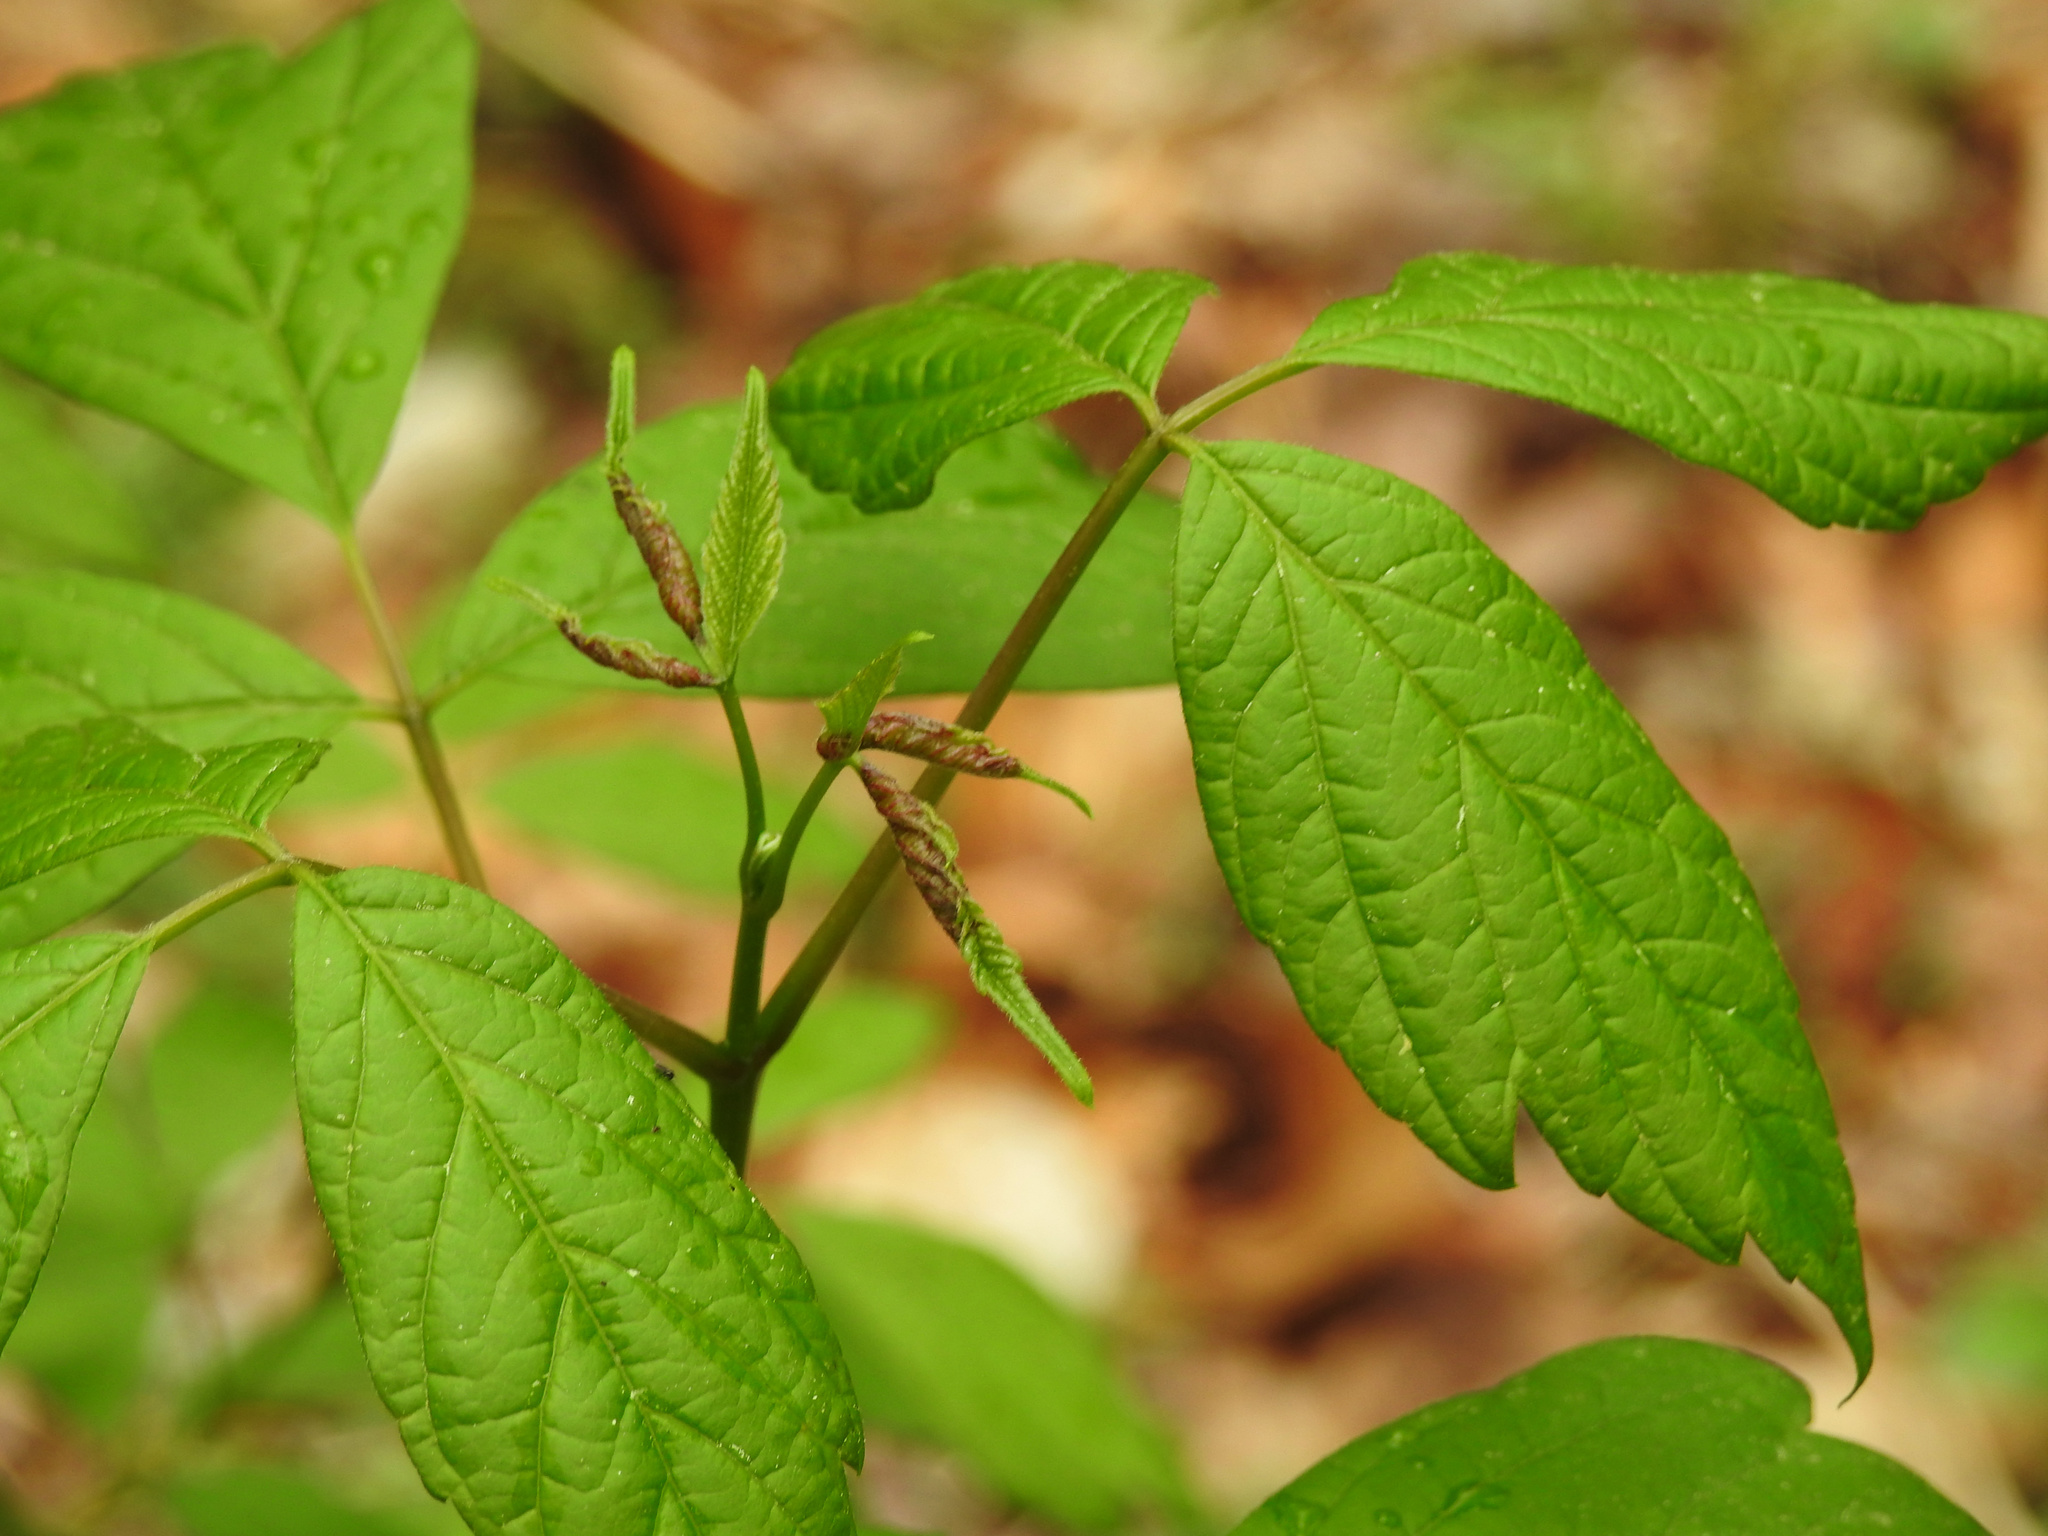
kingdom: Plantae
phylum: Tracheophyta
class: Magnoliopsida
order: Sapindales
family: Sapindaceae
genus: Acer
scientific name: Acer negundo
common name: Ashleaf maple
